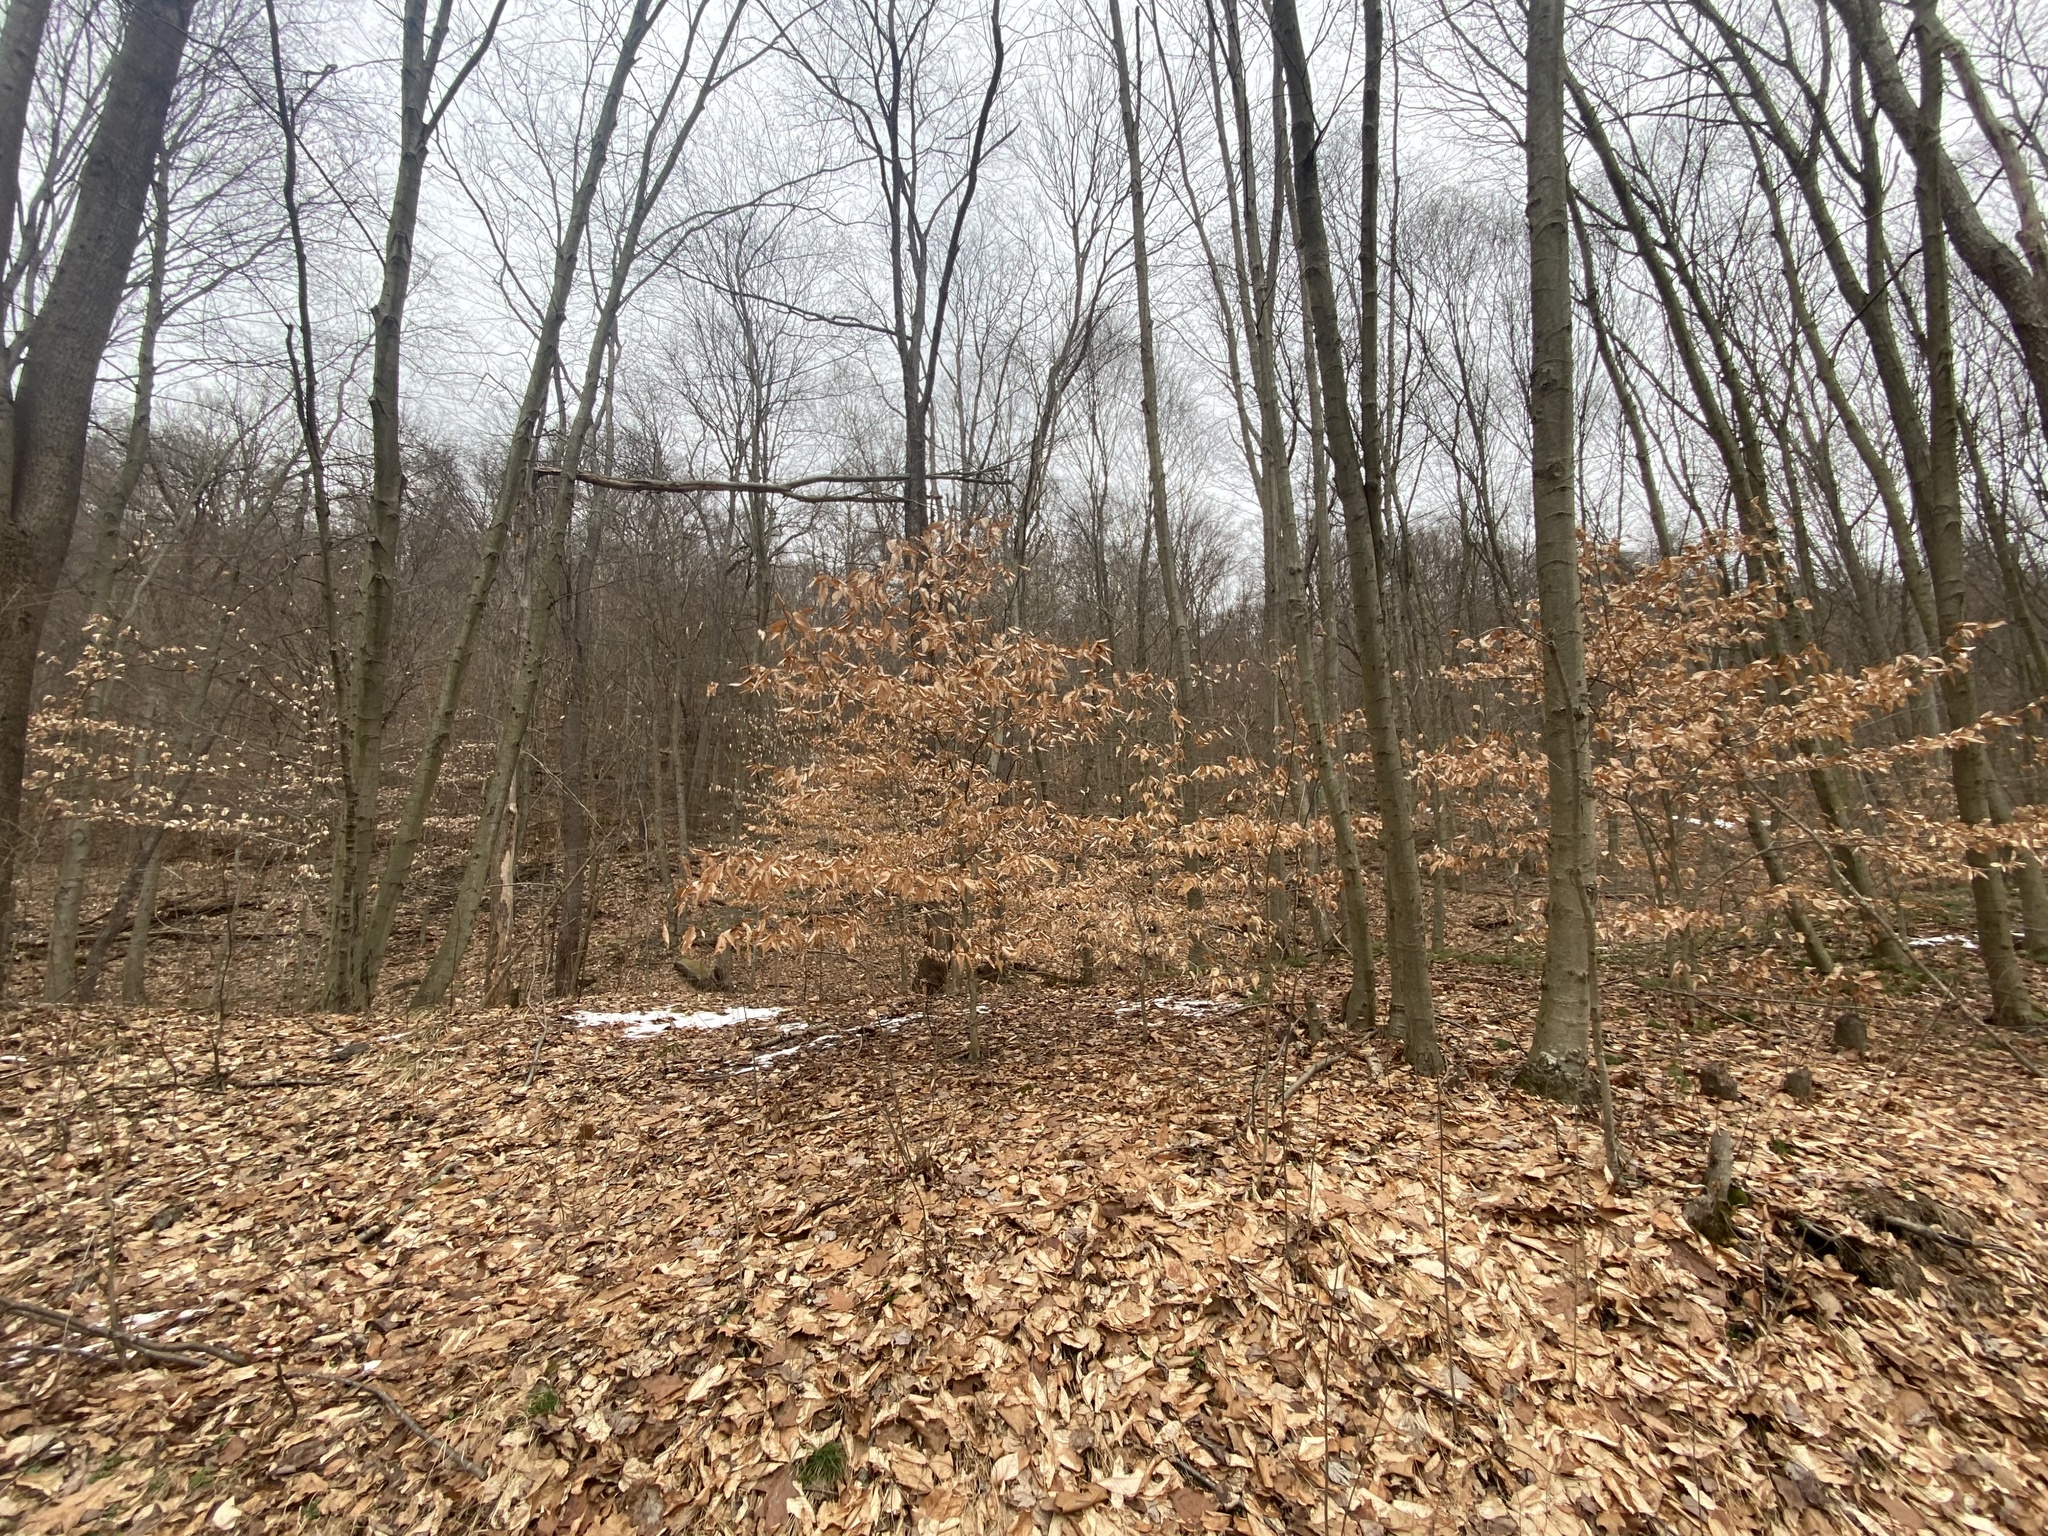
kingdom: Plantae
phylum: Tracheophyta
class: Magnoliopsida
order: Fagales
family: Fagaceae
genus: Fagus
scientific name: Fagus grandifolia
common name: American beech
